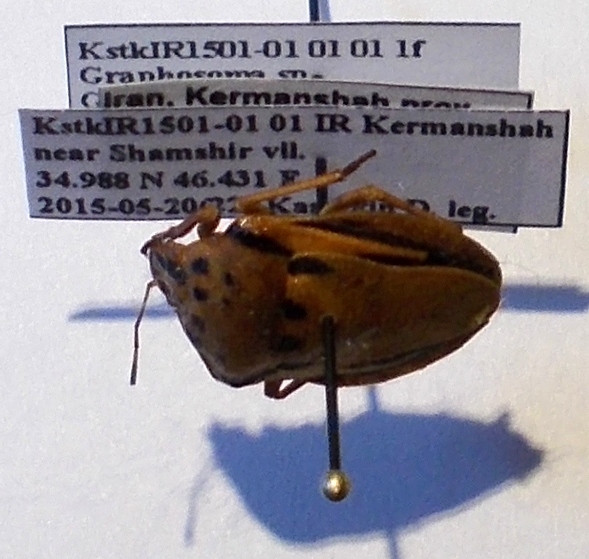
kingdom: Animalia
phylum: Arthropoda
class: Insecta
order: Hemiptera
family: Pentatomidae
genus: Graphosoma
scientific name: Graphosoma
